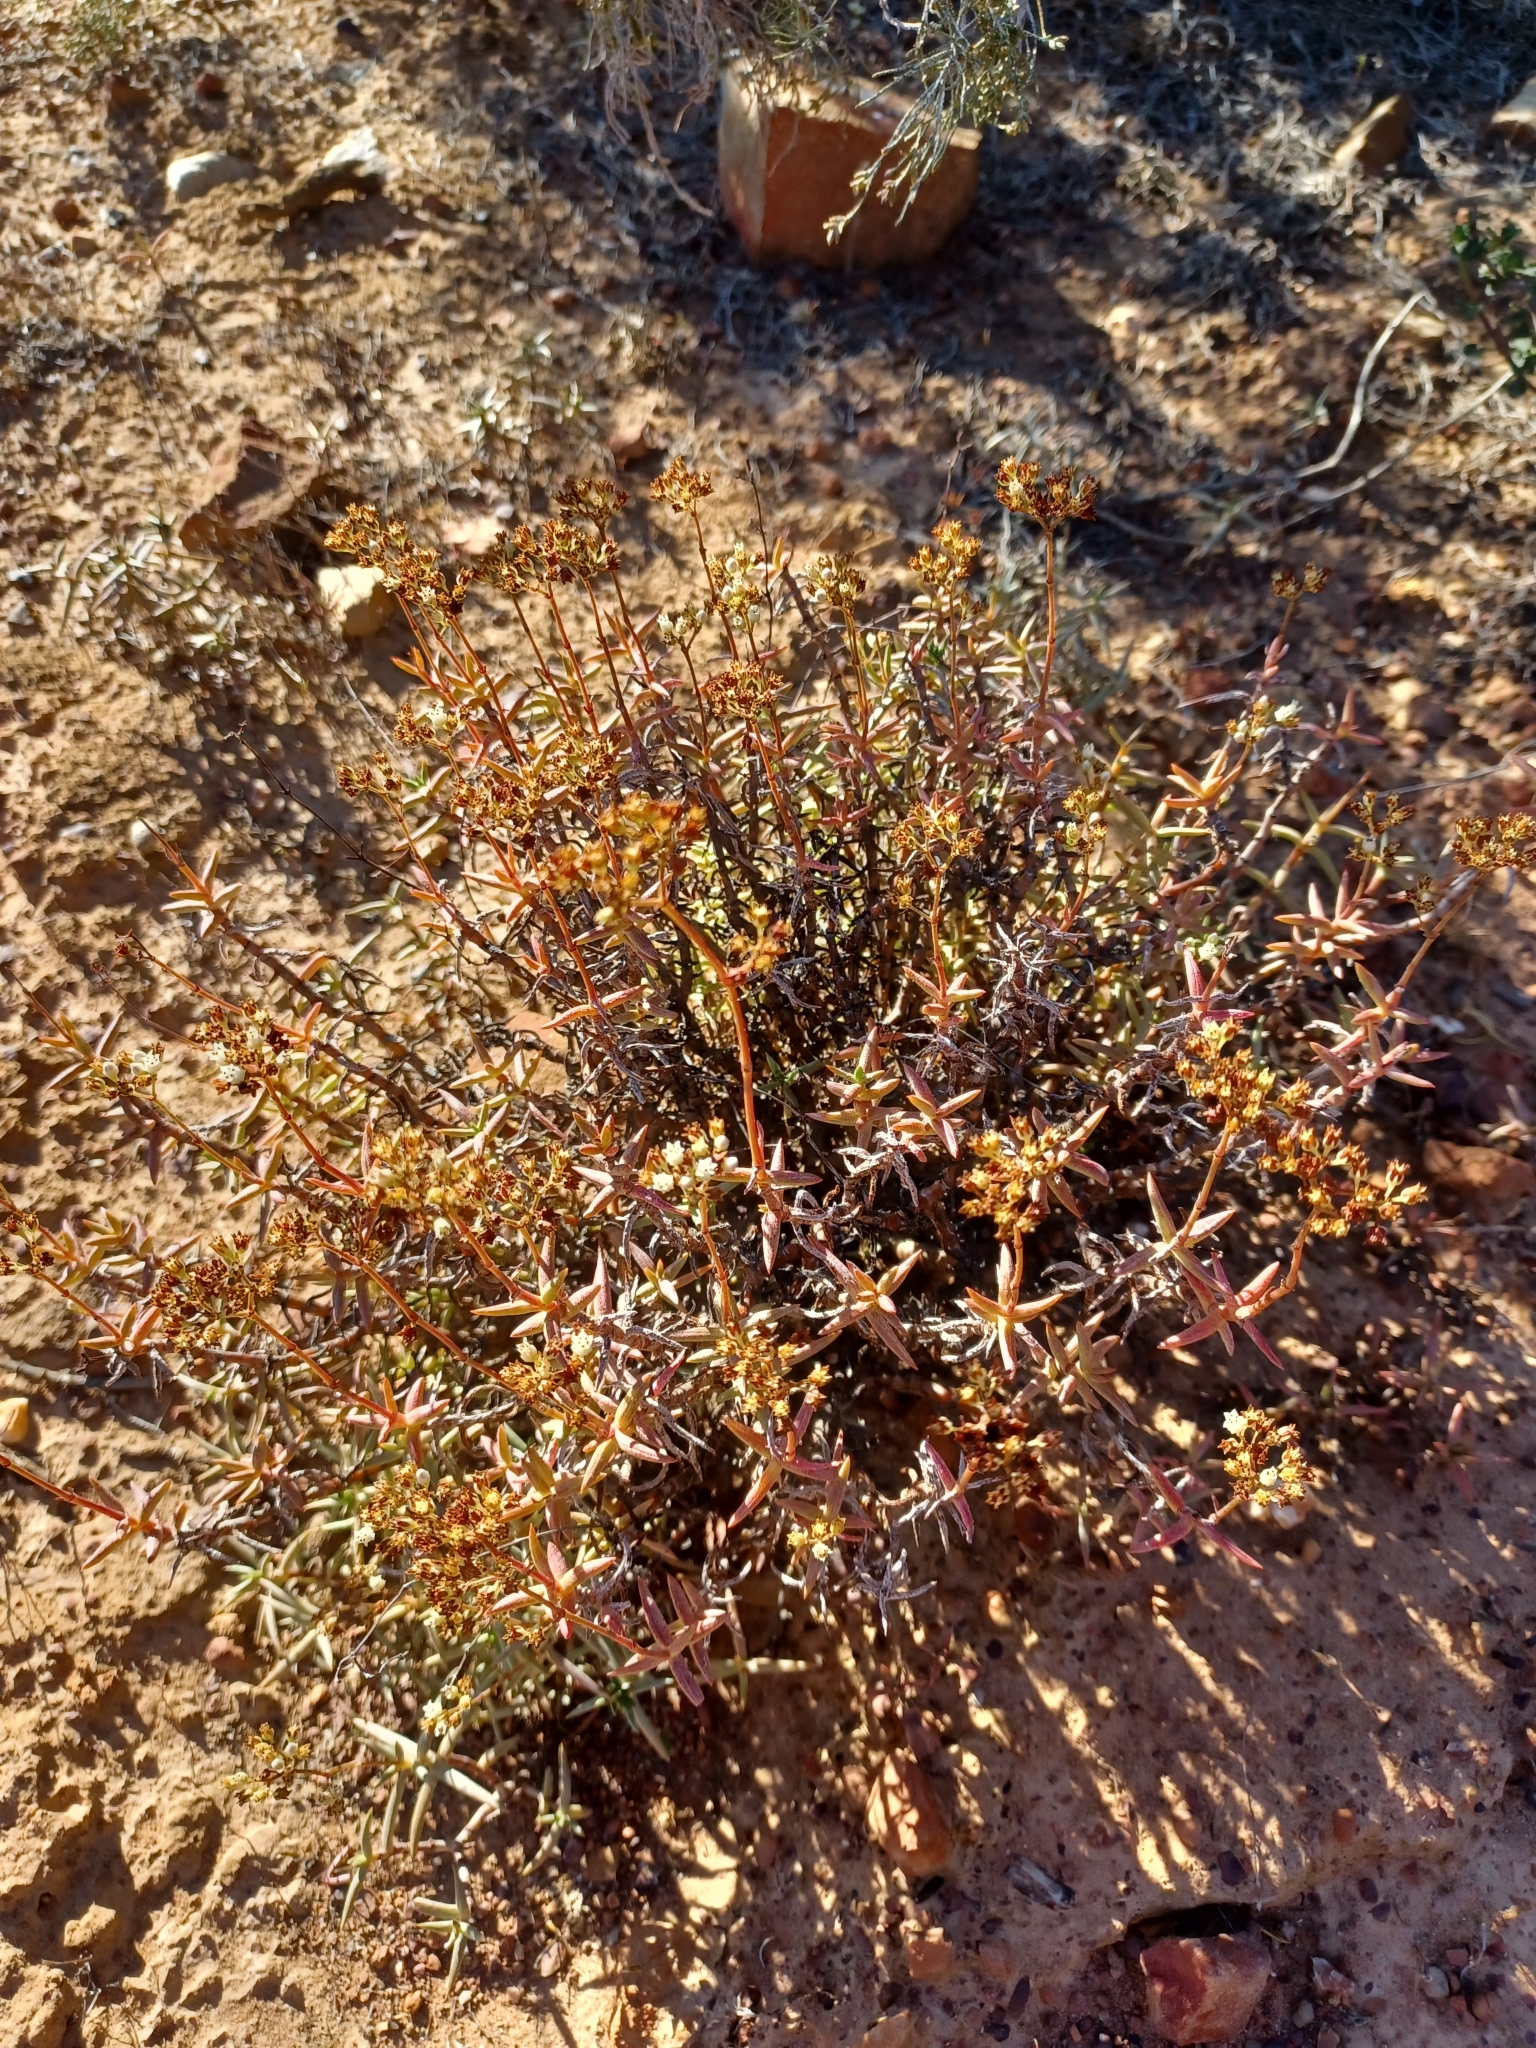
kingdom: Plantae
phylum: Tracheophyta
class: Magnoliopsida
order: Saxifragales
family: Crassulaceae
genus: Crassula
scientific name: Crassula tetragona
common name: Pygmyweed
